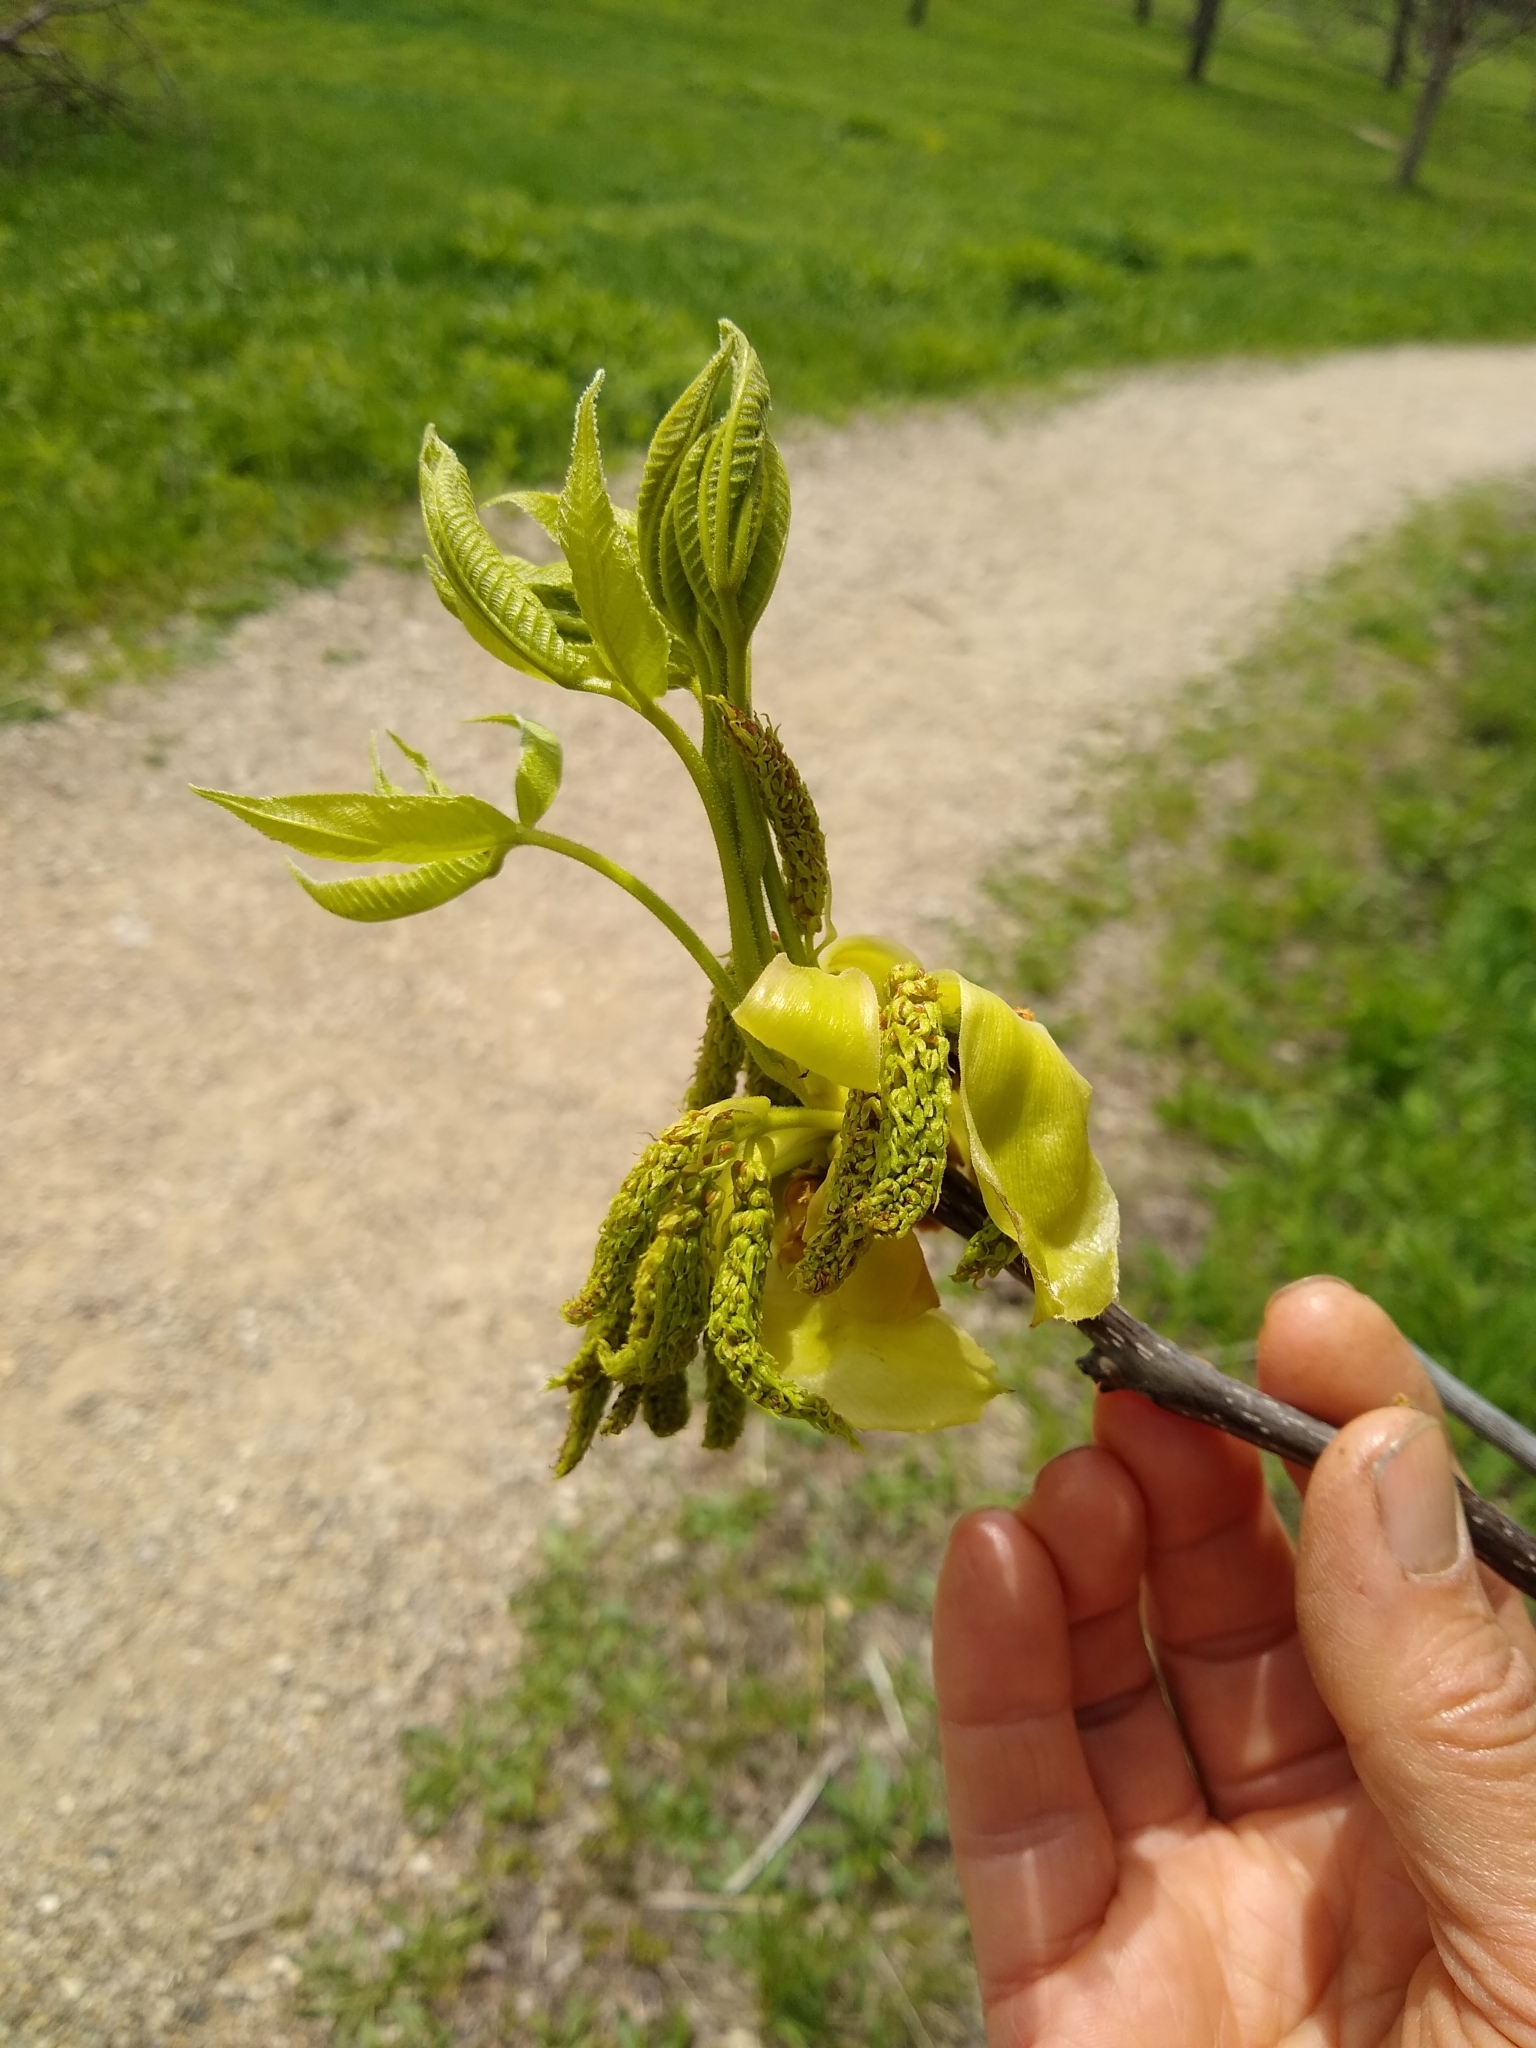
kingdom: Plantae
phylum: Tracheophyta
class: Magnoliopsida
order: Fagales
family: Juglandaceae
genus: Carya
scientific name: Carya ovata
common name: Shagbark hickory
